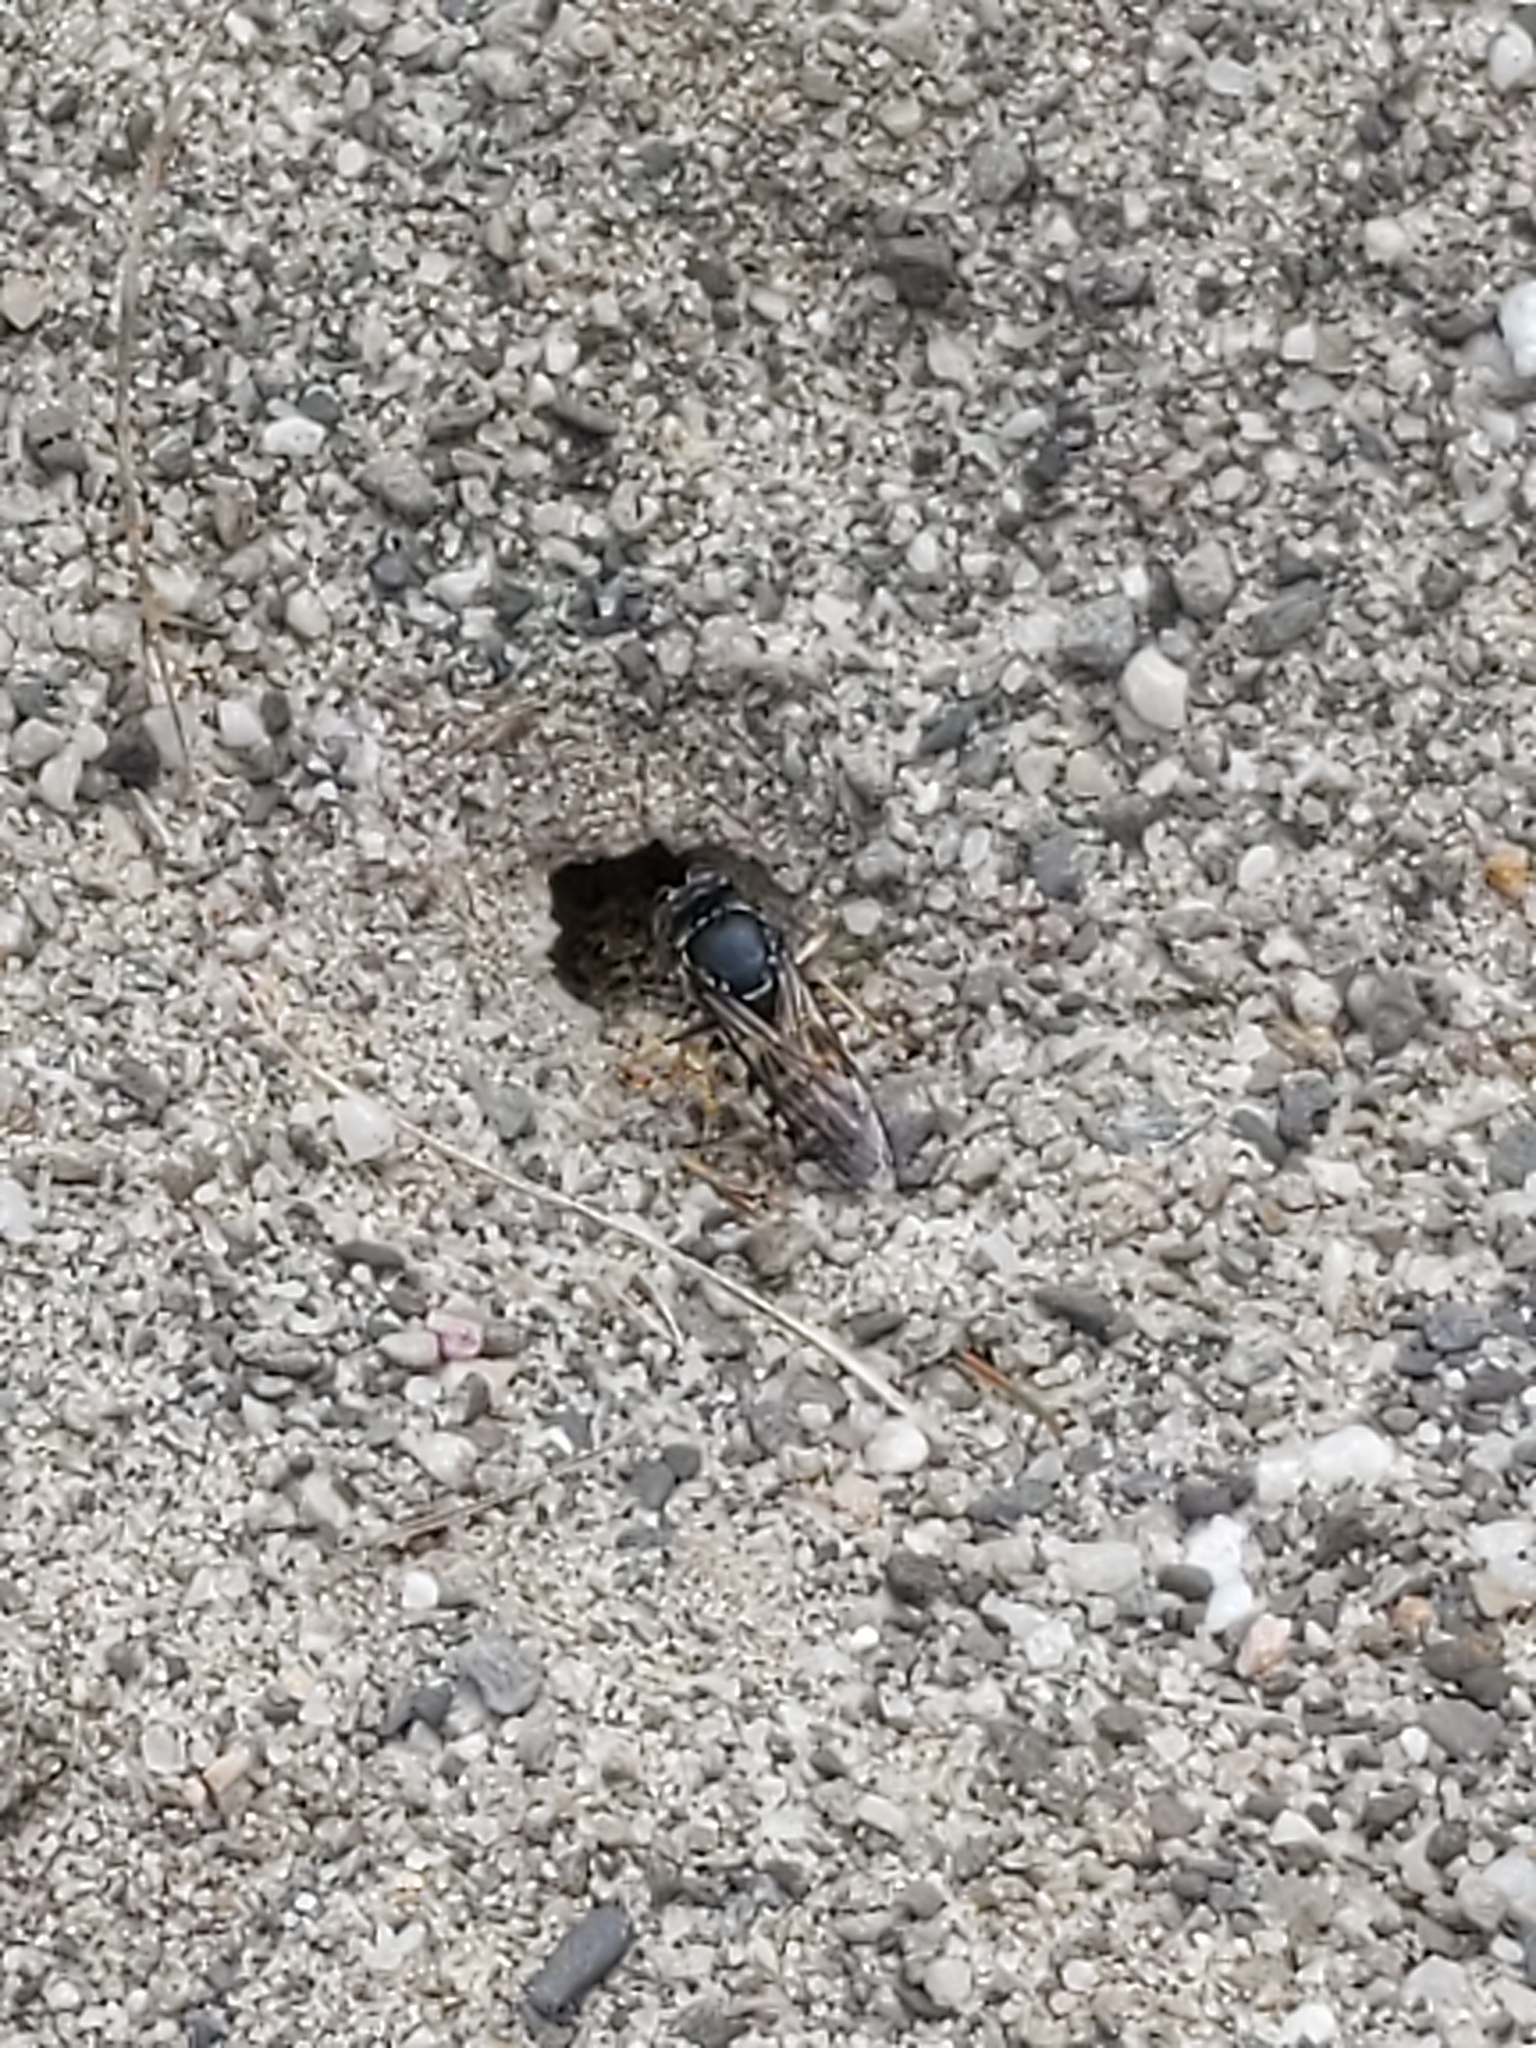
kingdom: Animalia
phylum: Arthropoda
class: Insecta
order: Hymenoptera
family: Crabronidae
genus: Bicyrtes
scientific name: Bicyrtes quadrifasciatus
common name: Four-banded stink bug hunter wasp
